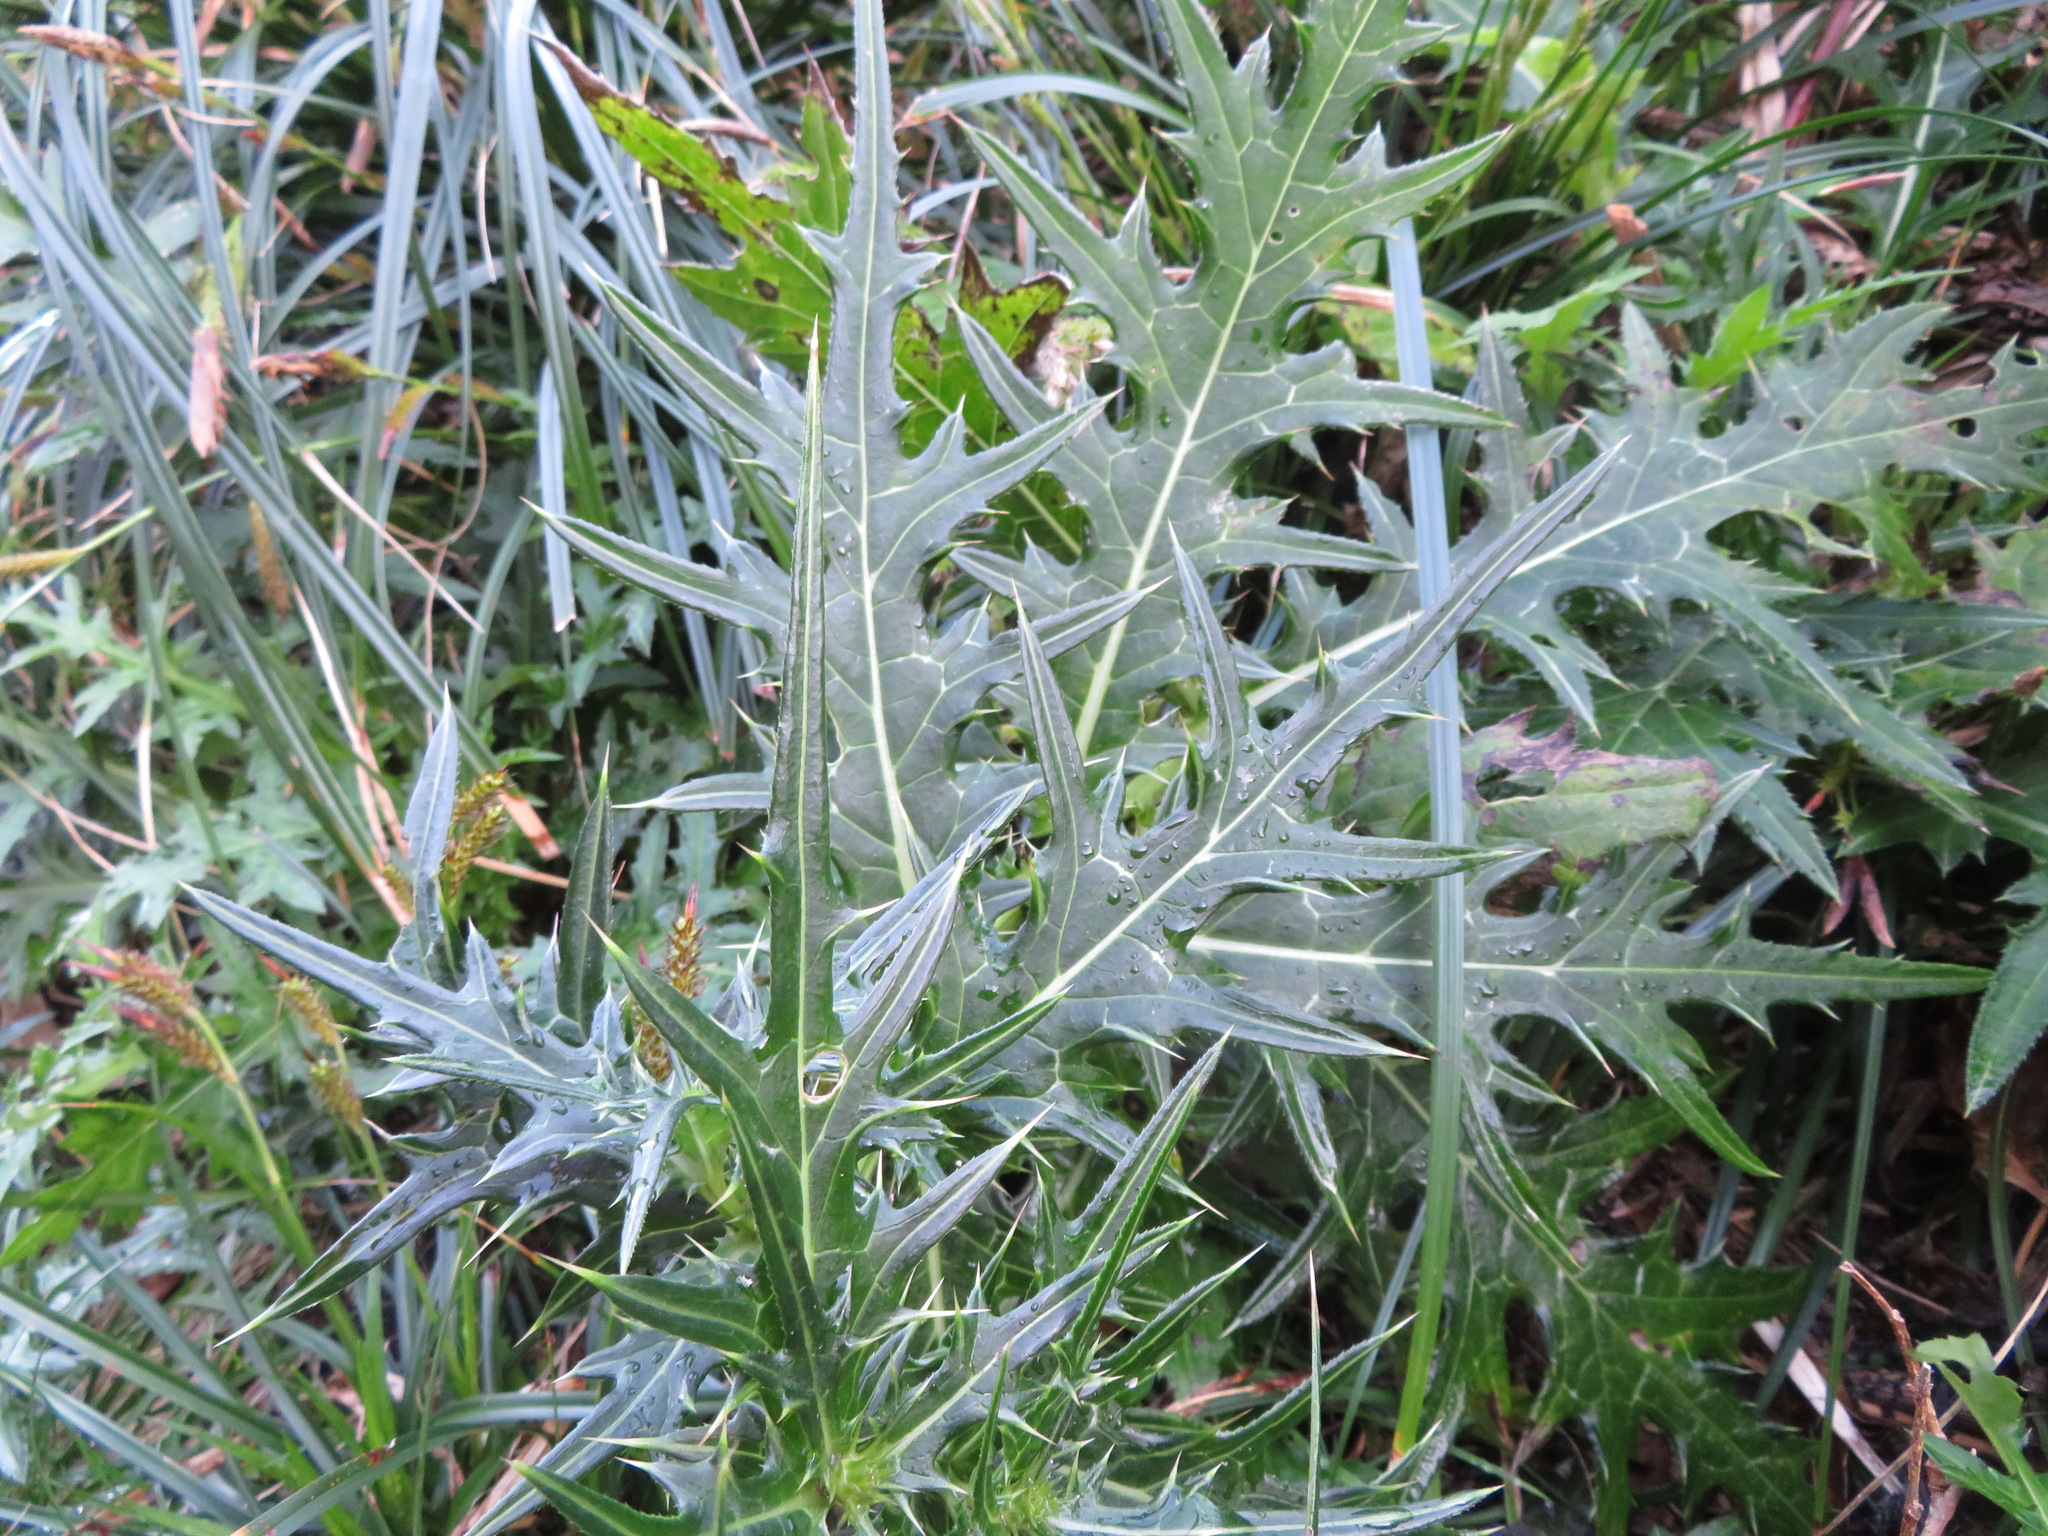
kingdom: Plantae
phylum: Tracheophyta
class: Magnoliopsida
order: Asterales
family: Asteraceae
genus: Cirsium
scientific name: Cirsium nipponicum
